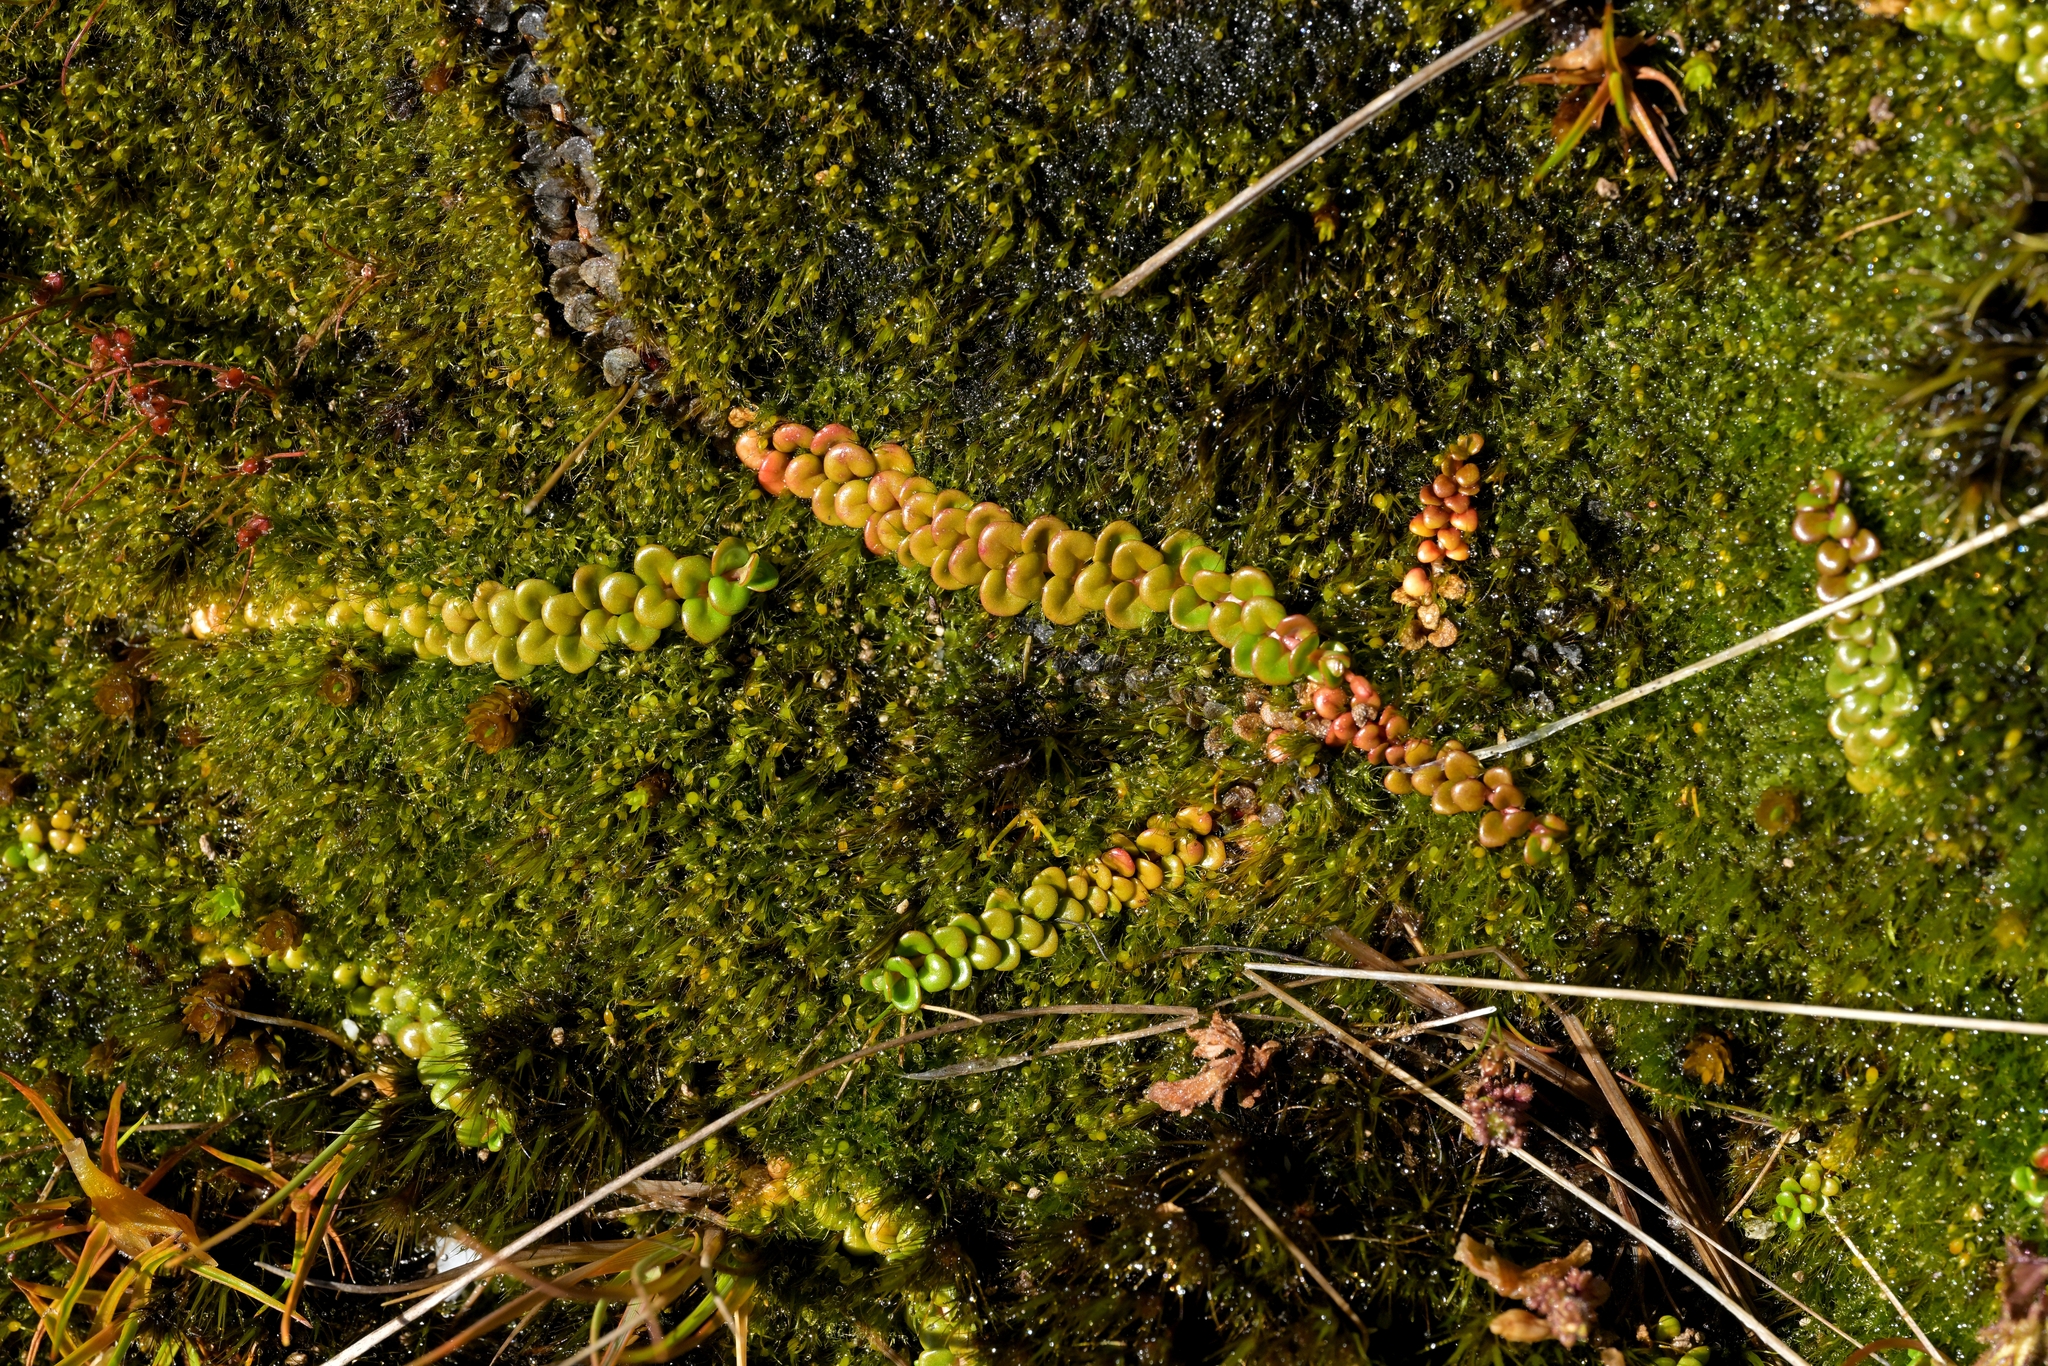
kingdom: Plantae
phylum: Tracheophyta
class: Magnoliopsida
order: Myrtales
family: Onagraceae
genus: Epilobium
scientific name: Epilobium pernitens
